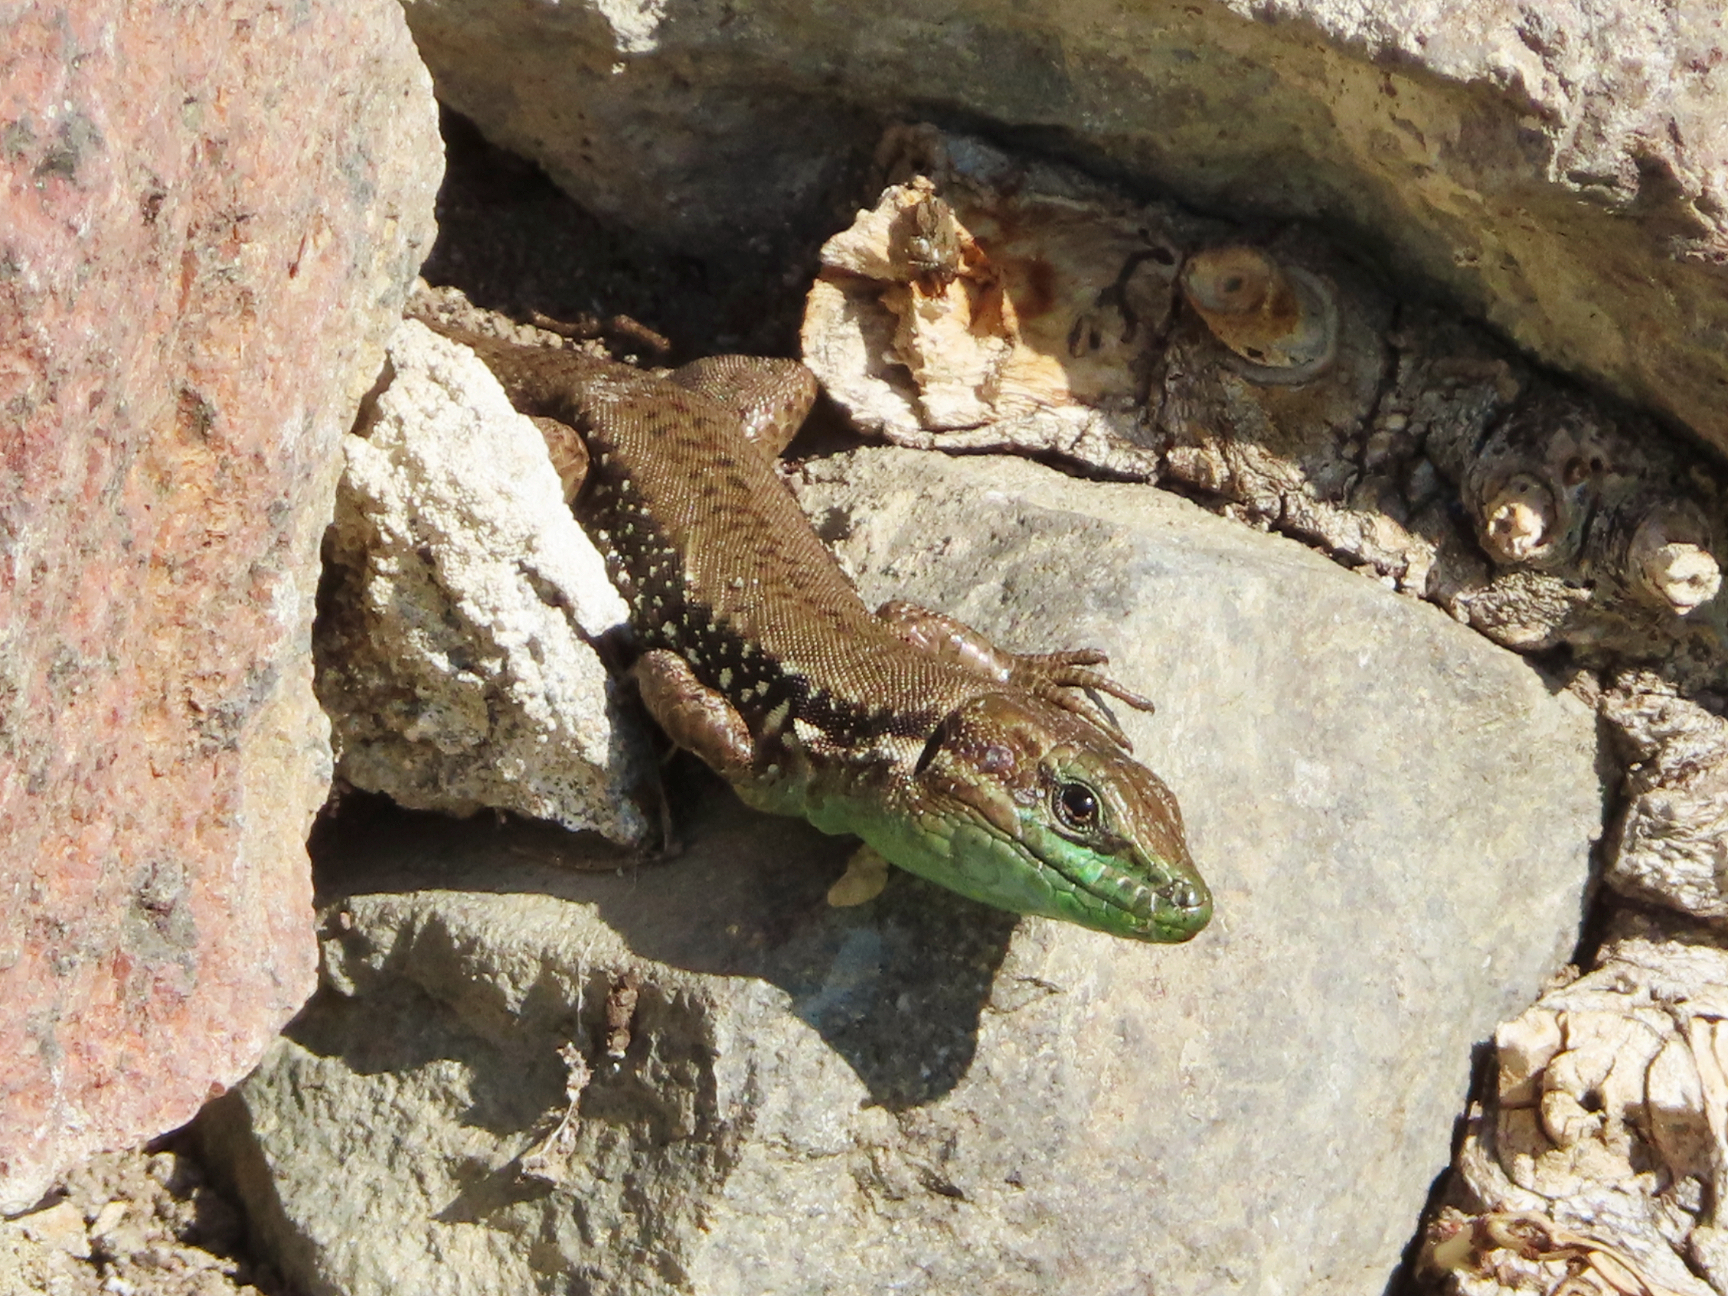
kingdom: Animalia
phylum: Chordata
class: Squamata
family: Lacertidae
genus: Phoenicolacerta
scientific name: Phoenicolacerta laevis
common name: Lebanon lizard
